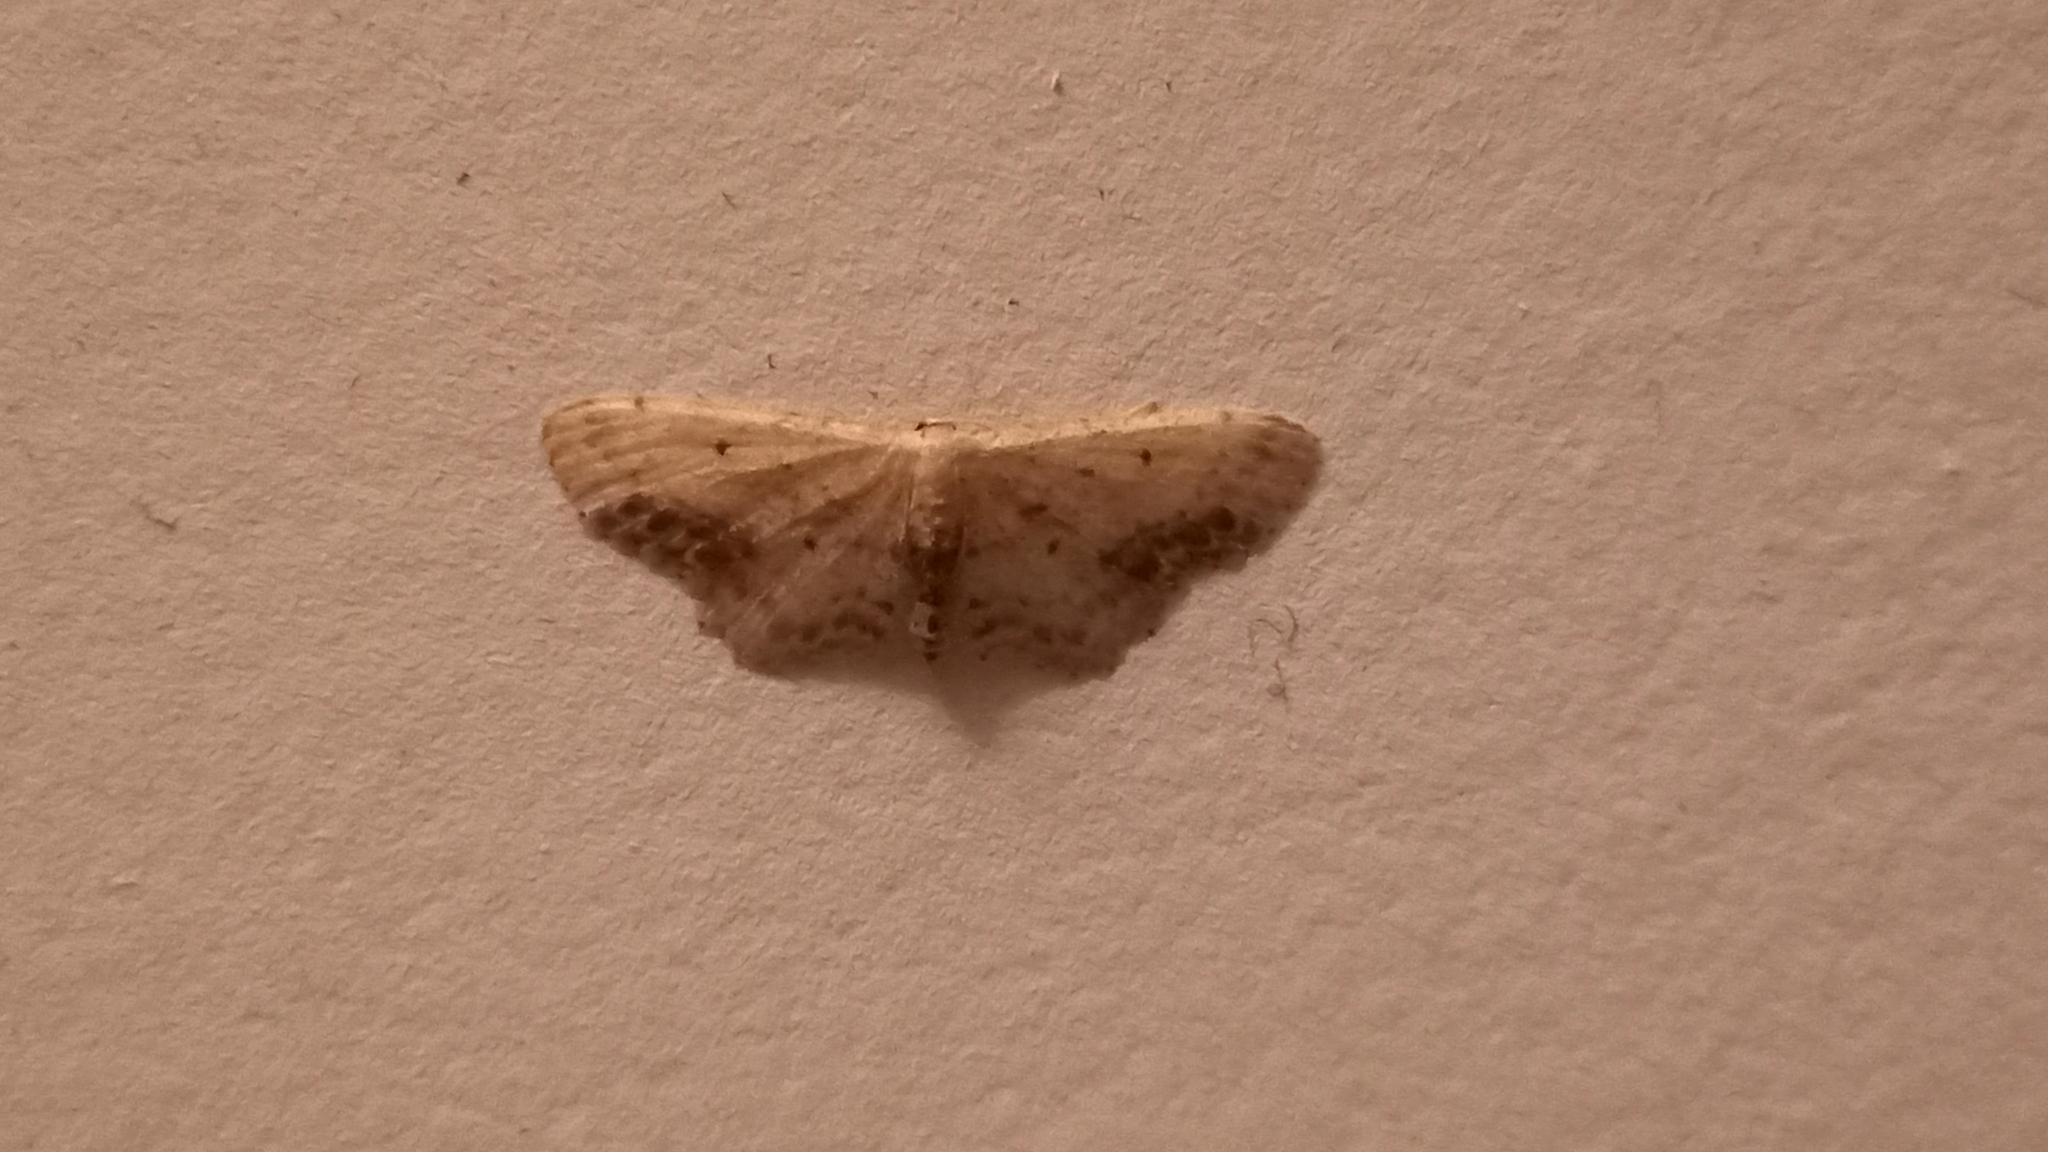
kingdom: Animalia
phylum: Arthropoda
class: Insecta
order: Lepidoptera
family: Geometridae
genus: Idaea
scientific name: Idaea dimidiata
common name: Single-dotted wave
